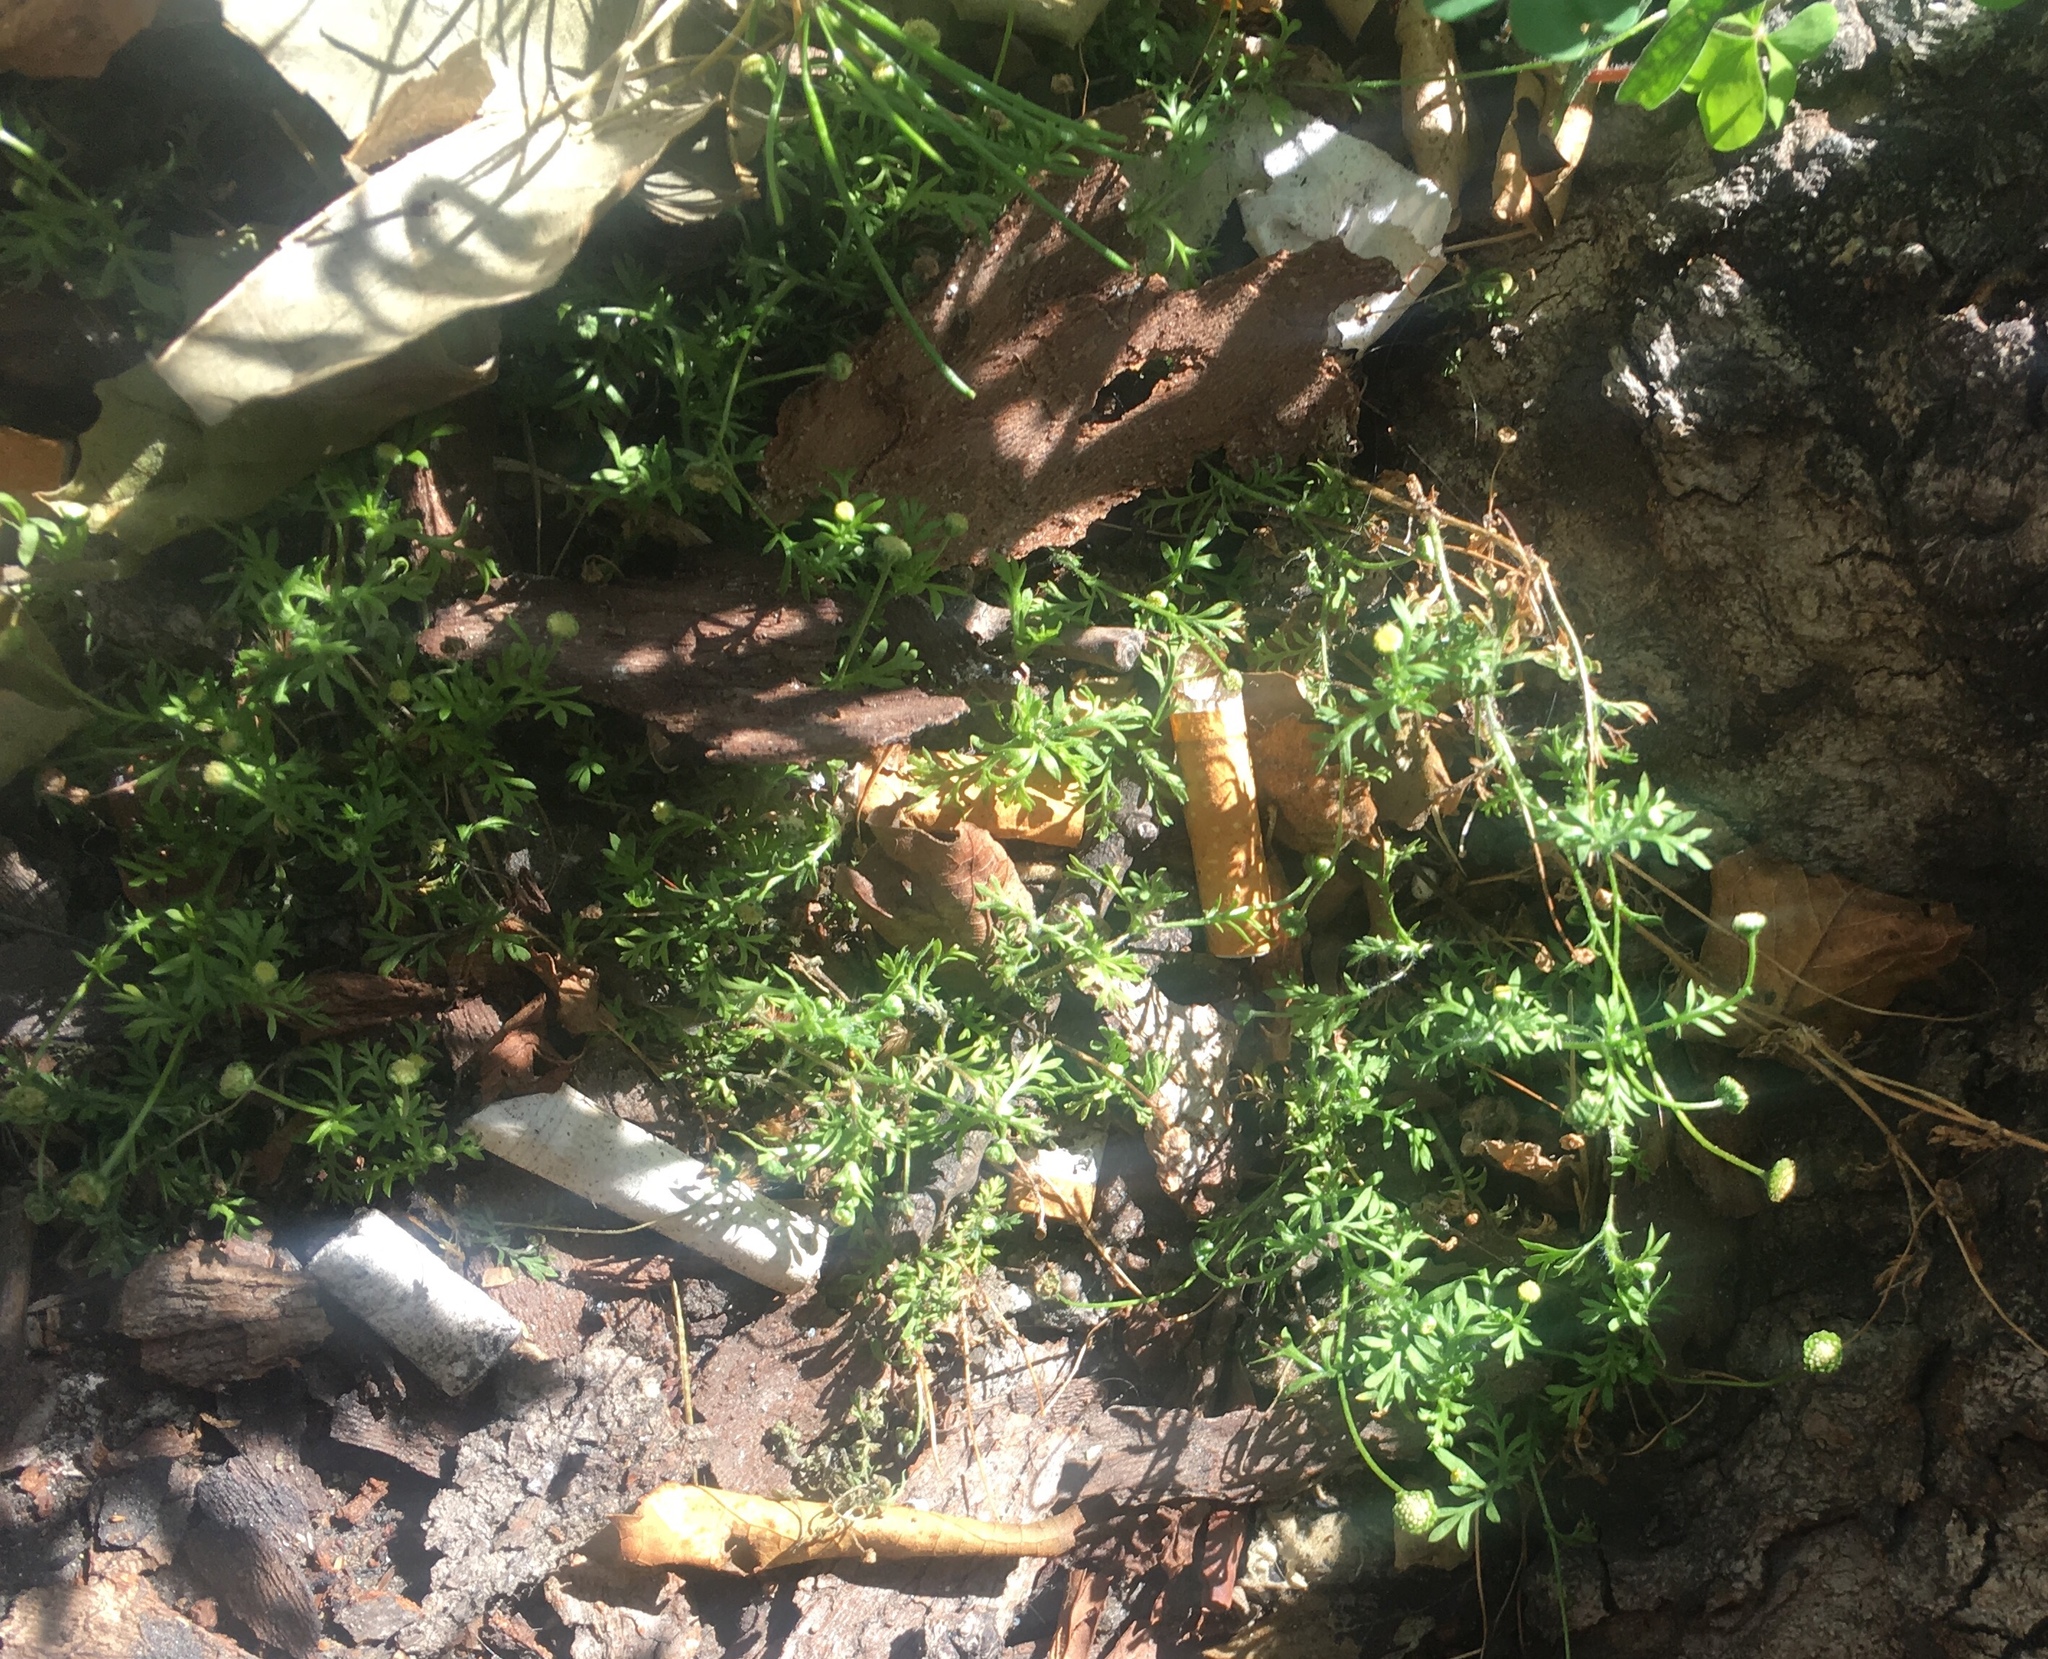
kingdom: Plantae
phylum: Tracheophyta
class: Magnoliopsida
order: Asterales
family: Asteraceae
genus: Cotula
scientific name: Cotula australis
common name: Australian waterbuttons
